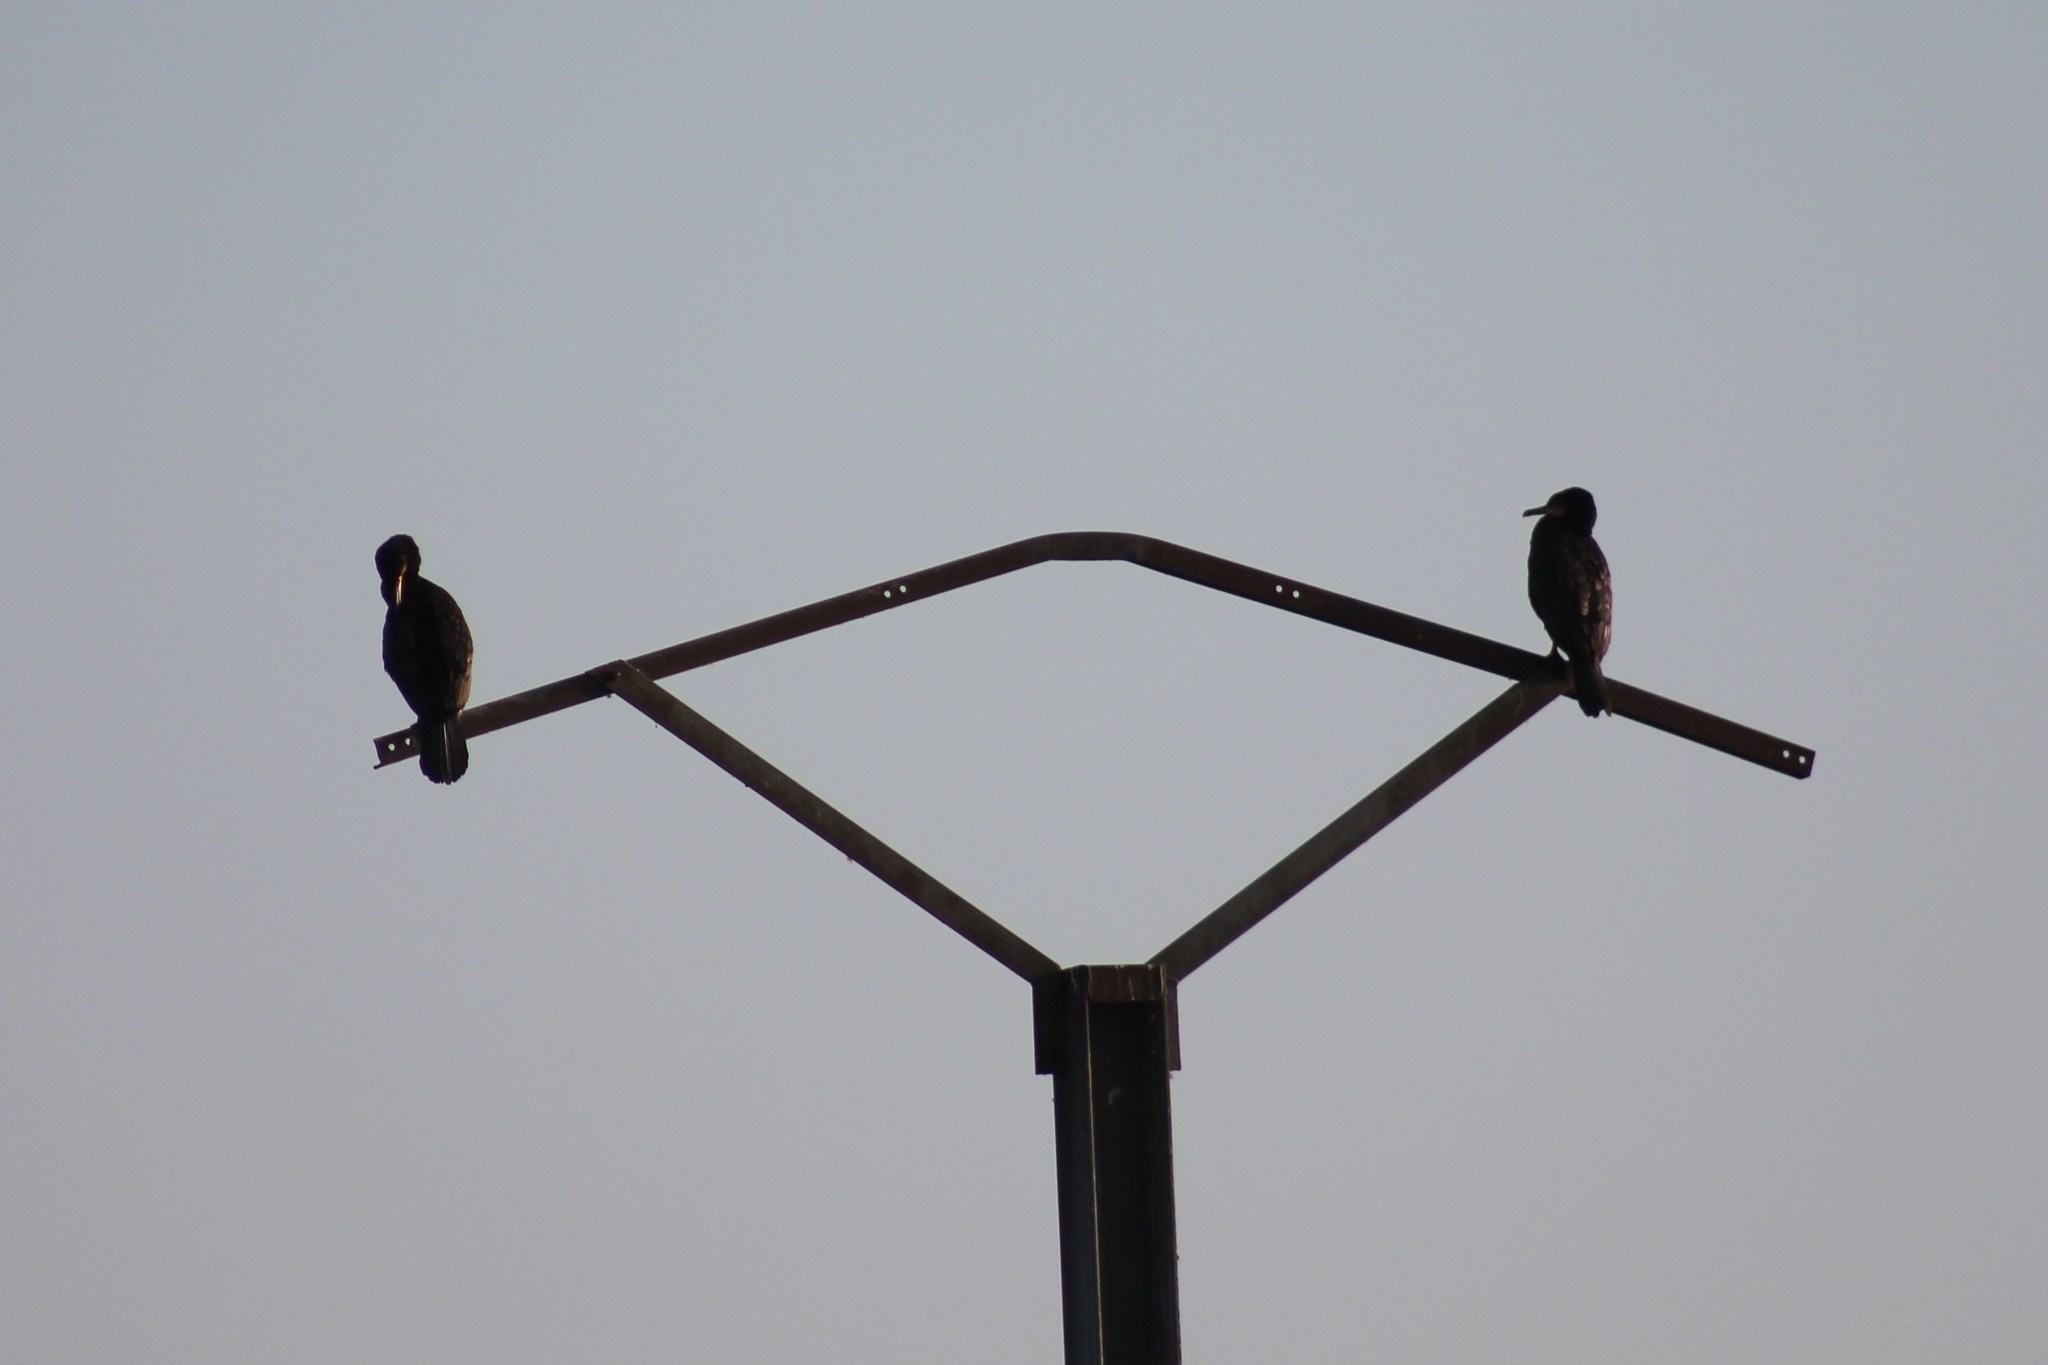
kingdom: Animalia
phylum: Chordata
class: Aves
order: Suliformes
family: Phalacrocoracidae
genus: Phalacrocorax
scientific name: Phalacrocorax carbo
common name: Great cormorant
